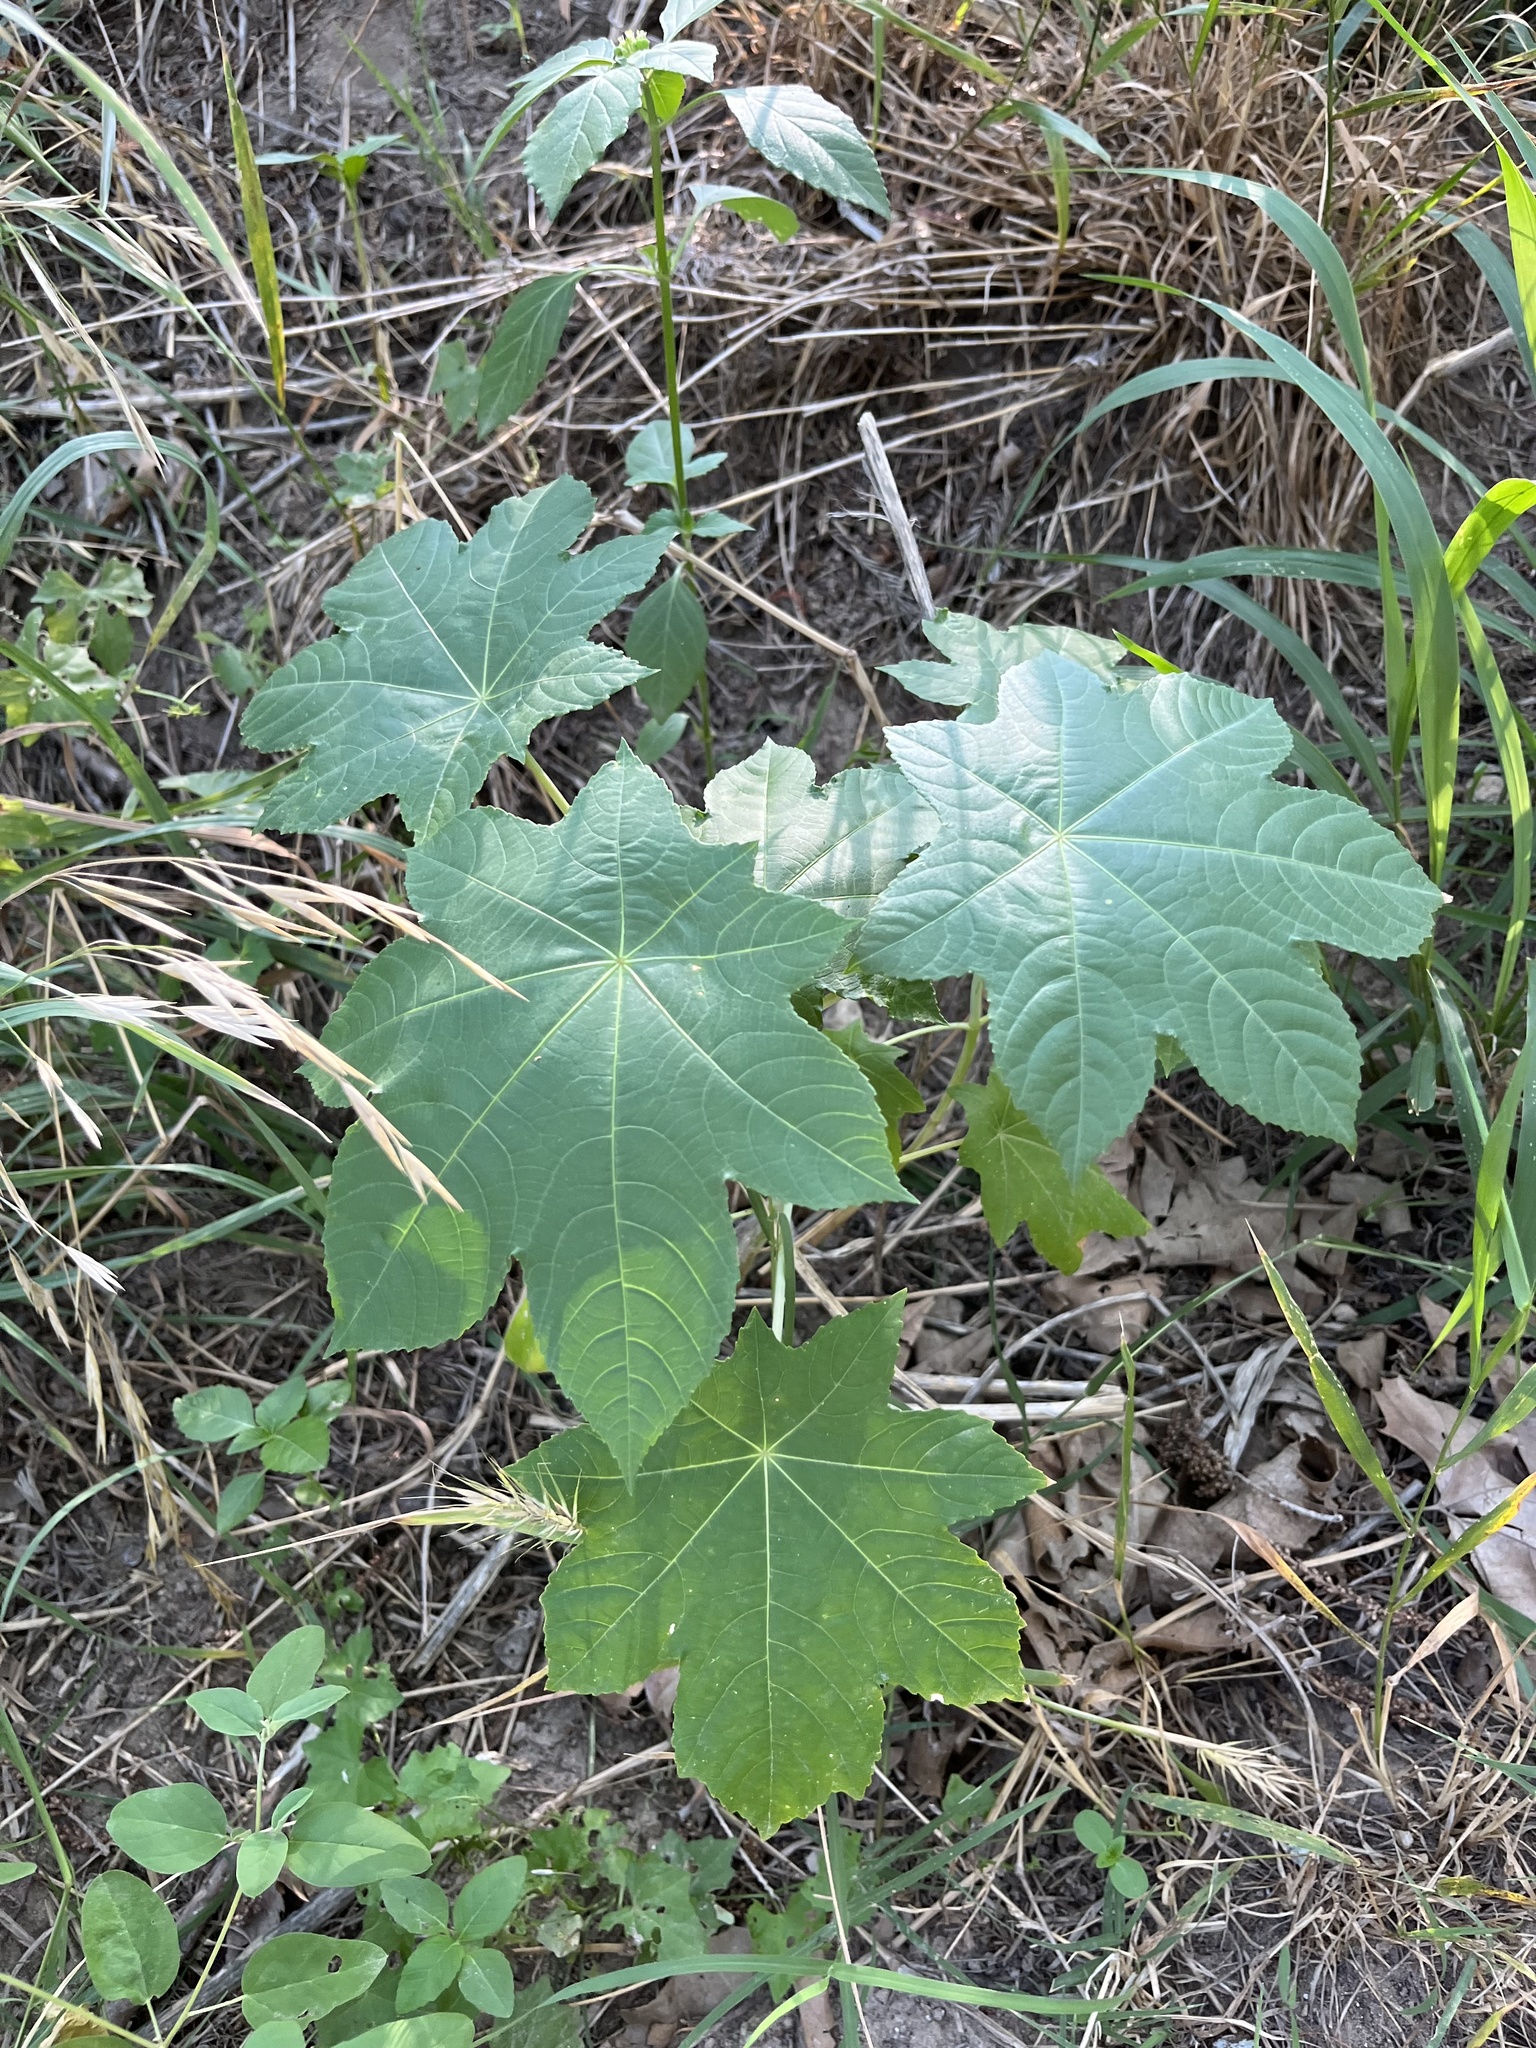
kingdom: Plantae
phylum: Tracheophyta
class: Magnoliopsida
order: Malpighiales
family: Euphorbiaceae
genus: Ricinus
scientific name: Ricinus communis
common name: Castor-oil-plant
